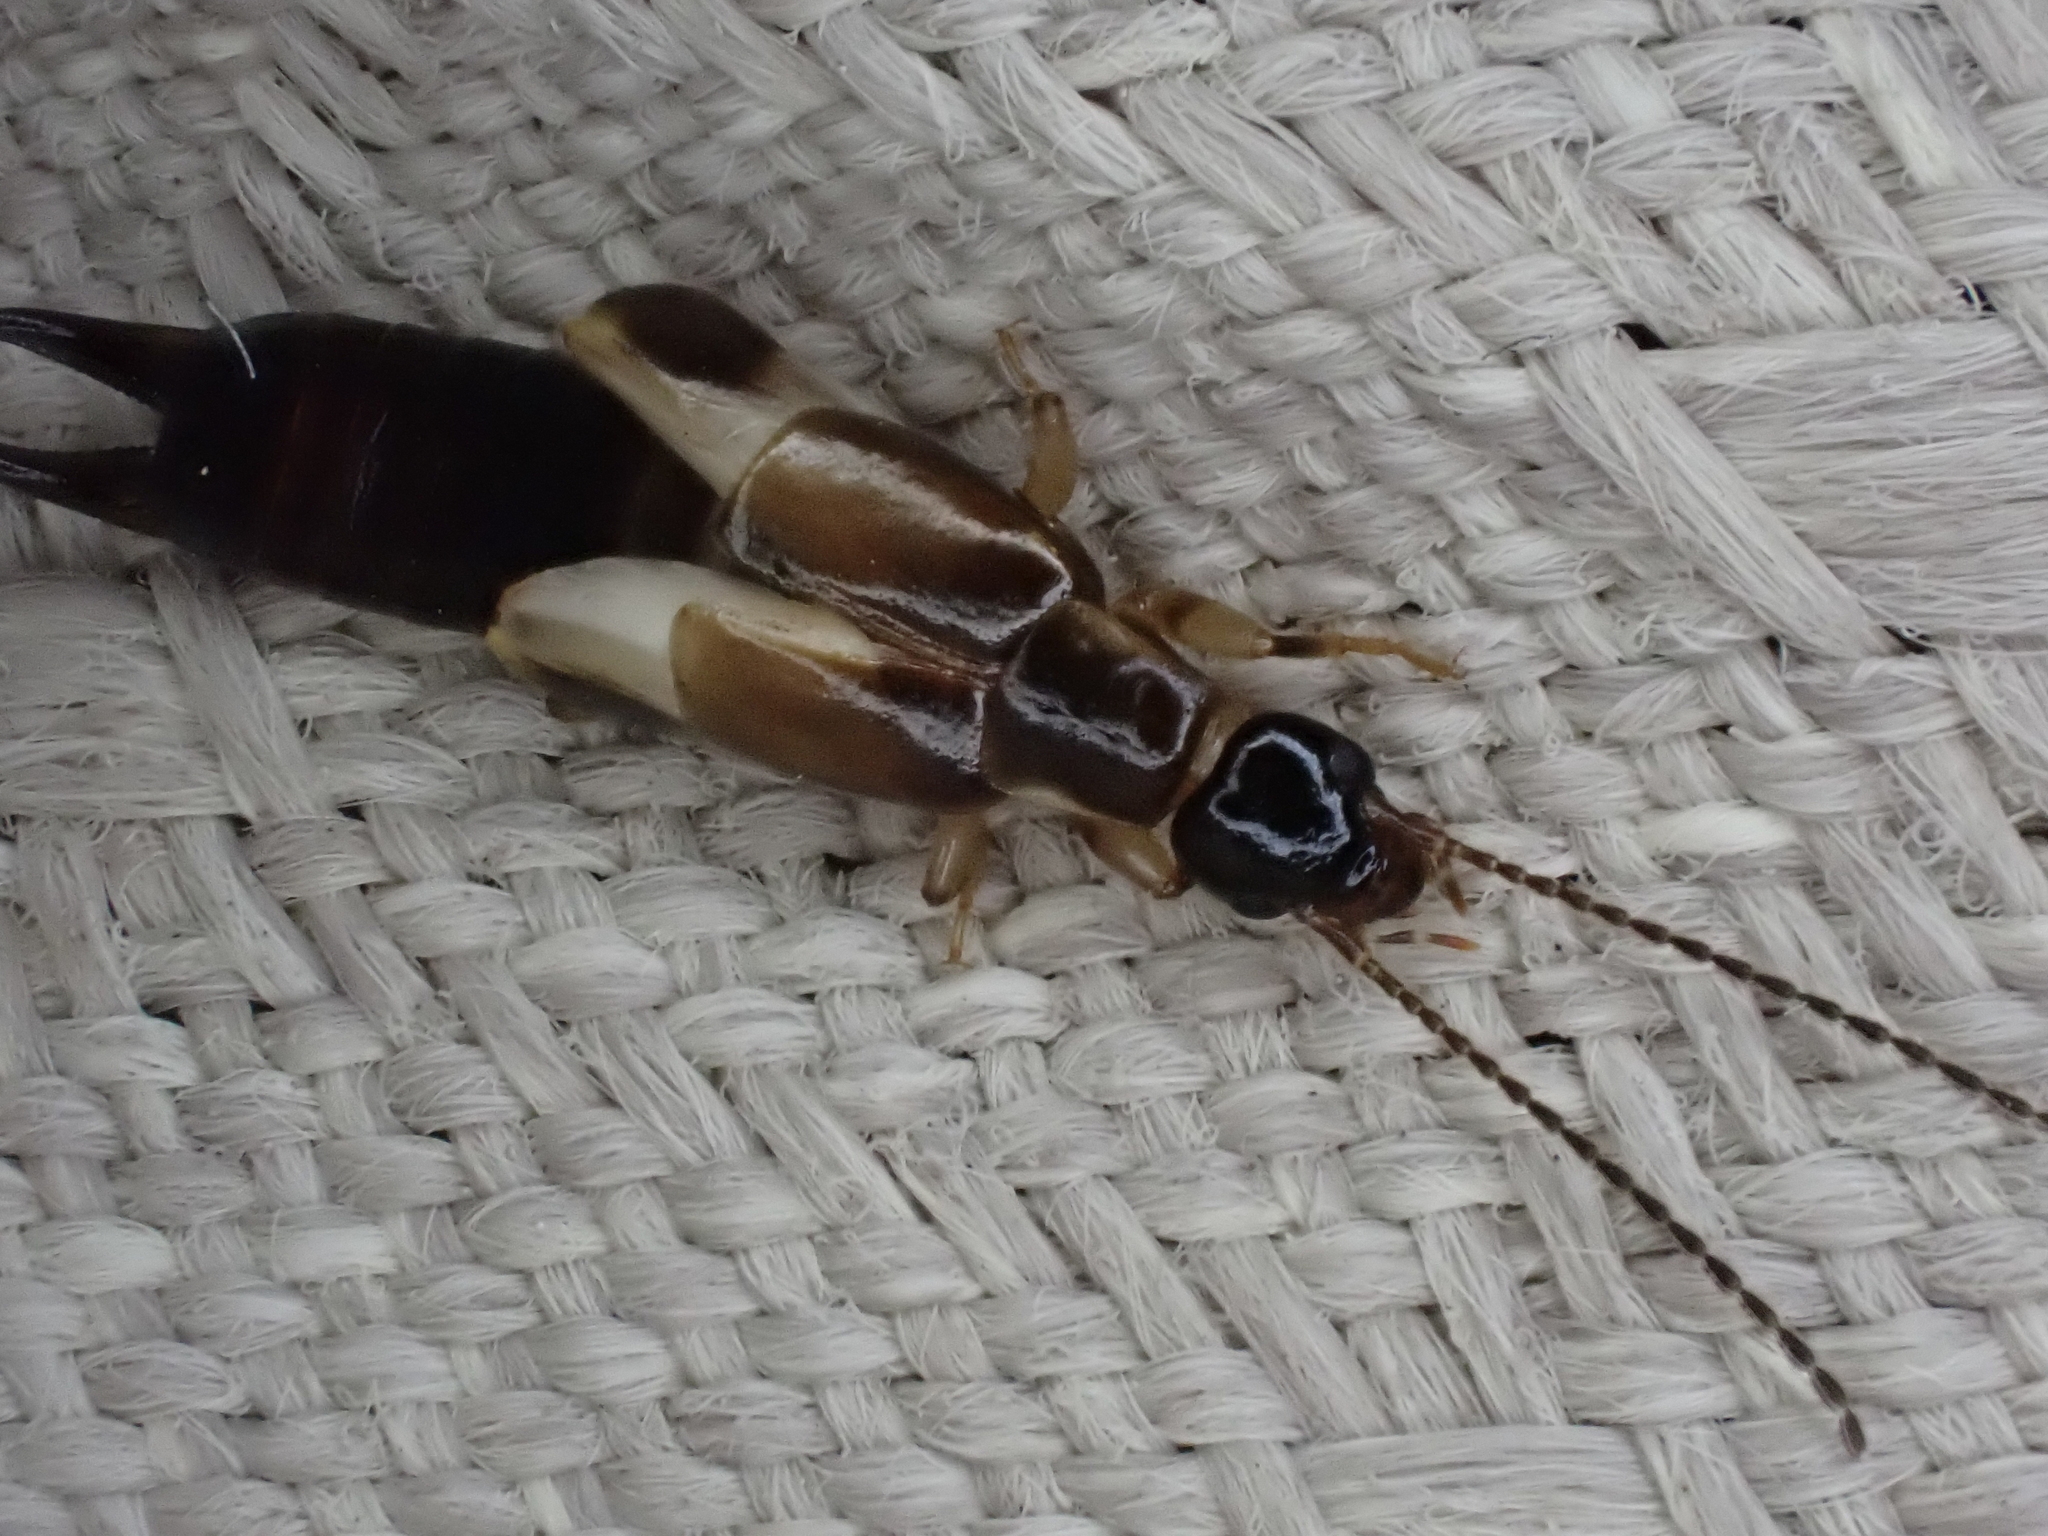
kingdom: Animalia
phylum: Arthropoda
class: Insecta
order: Dermaptera
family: Anisolabididae
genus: Euborellia
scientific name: Euborellia cincticollis
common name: African earwig
